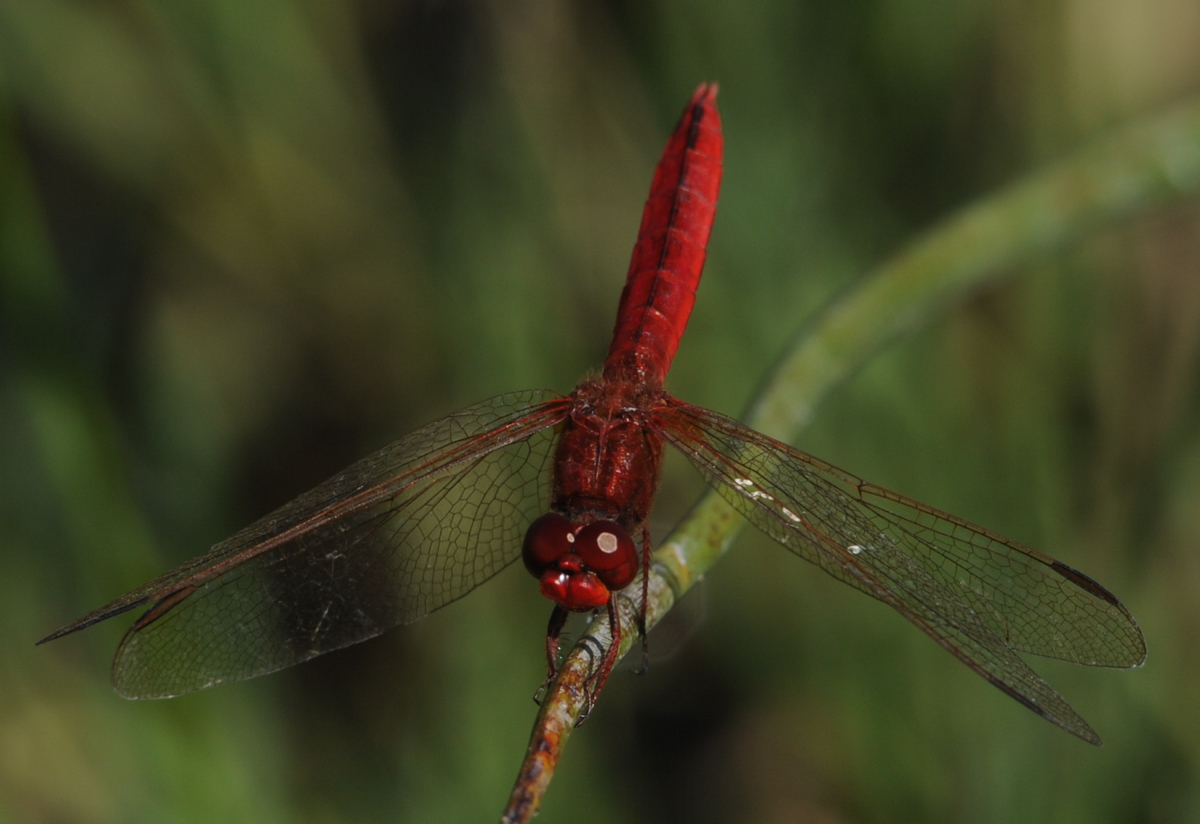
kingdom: Animalia
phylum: Arthropoda
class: Insecta
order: Odonata
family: Libellulidae
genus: Crocothemis
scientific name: Crocothemis erythraea
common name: Scarlet dragonfly
